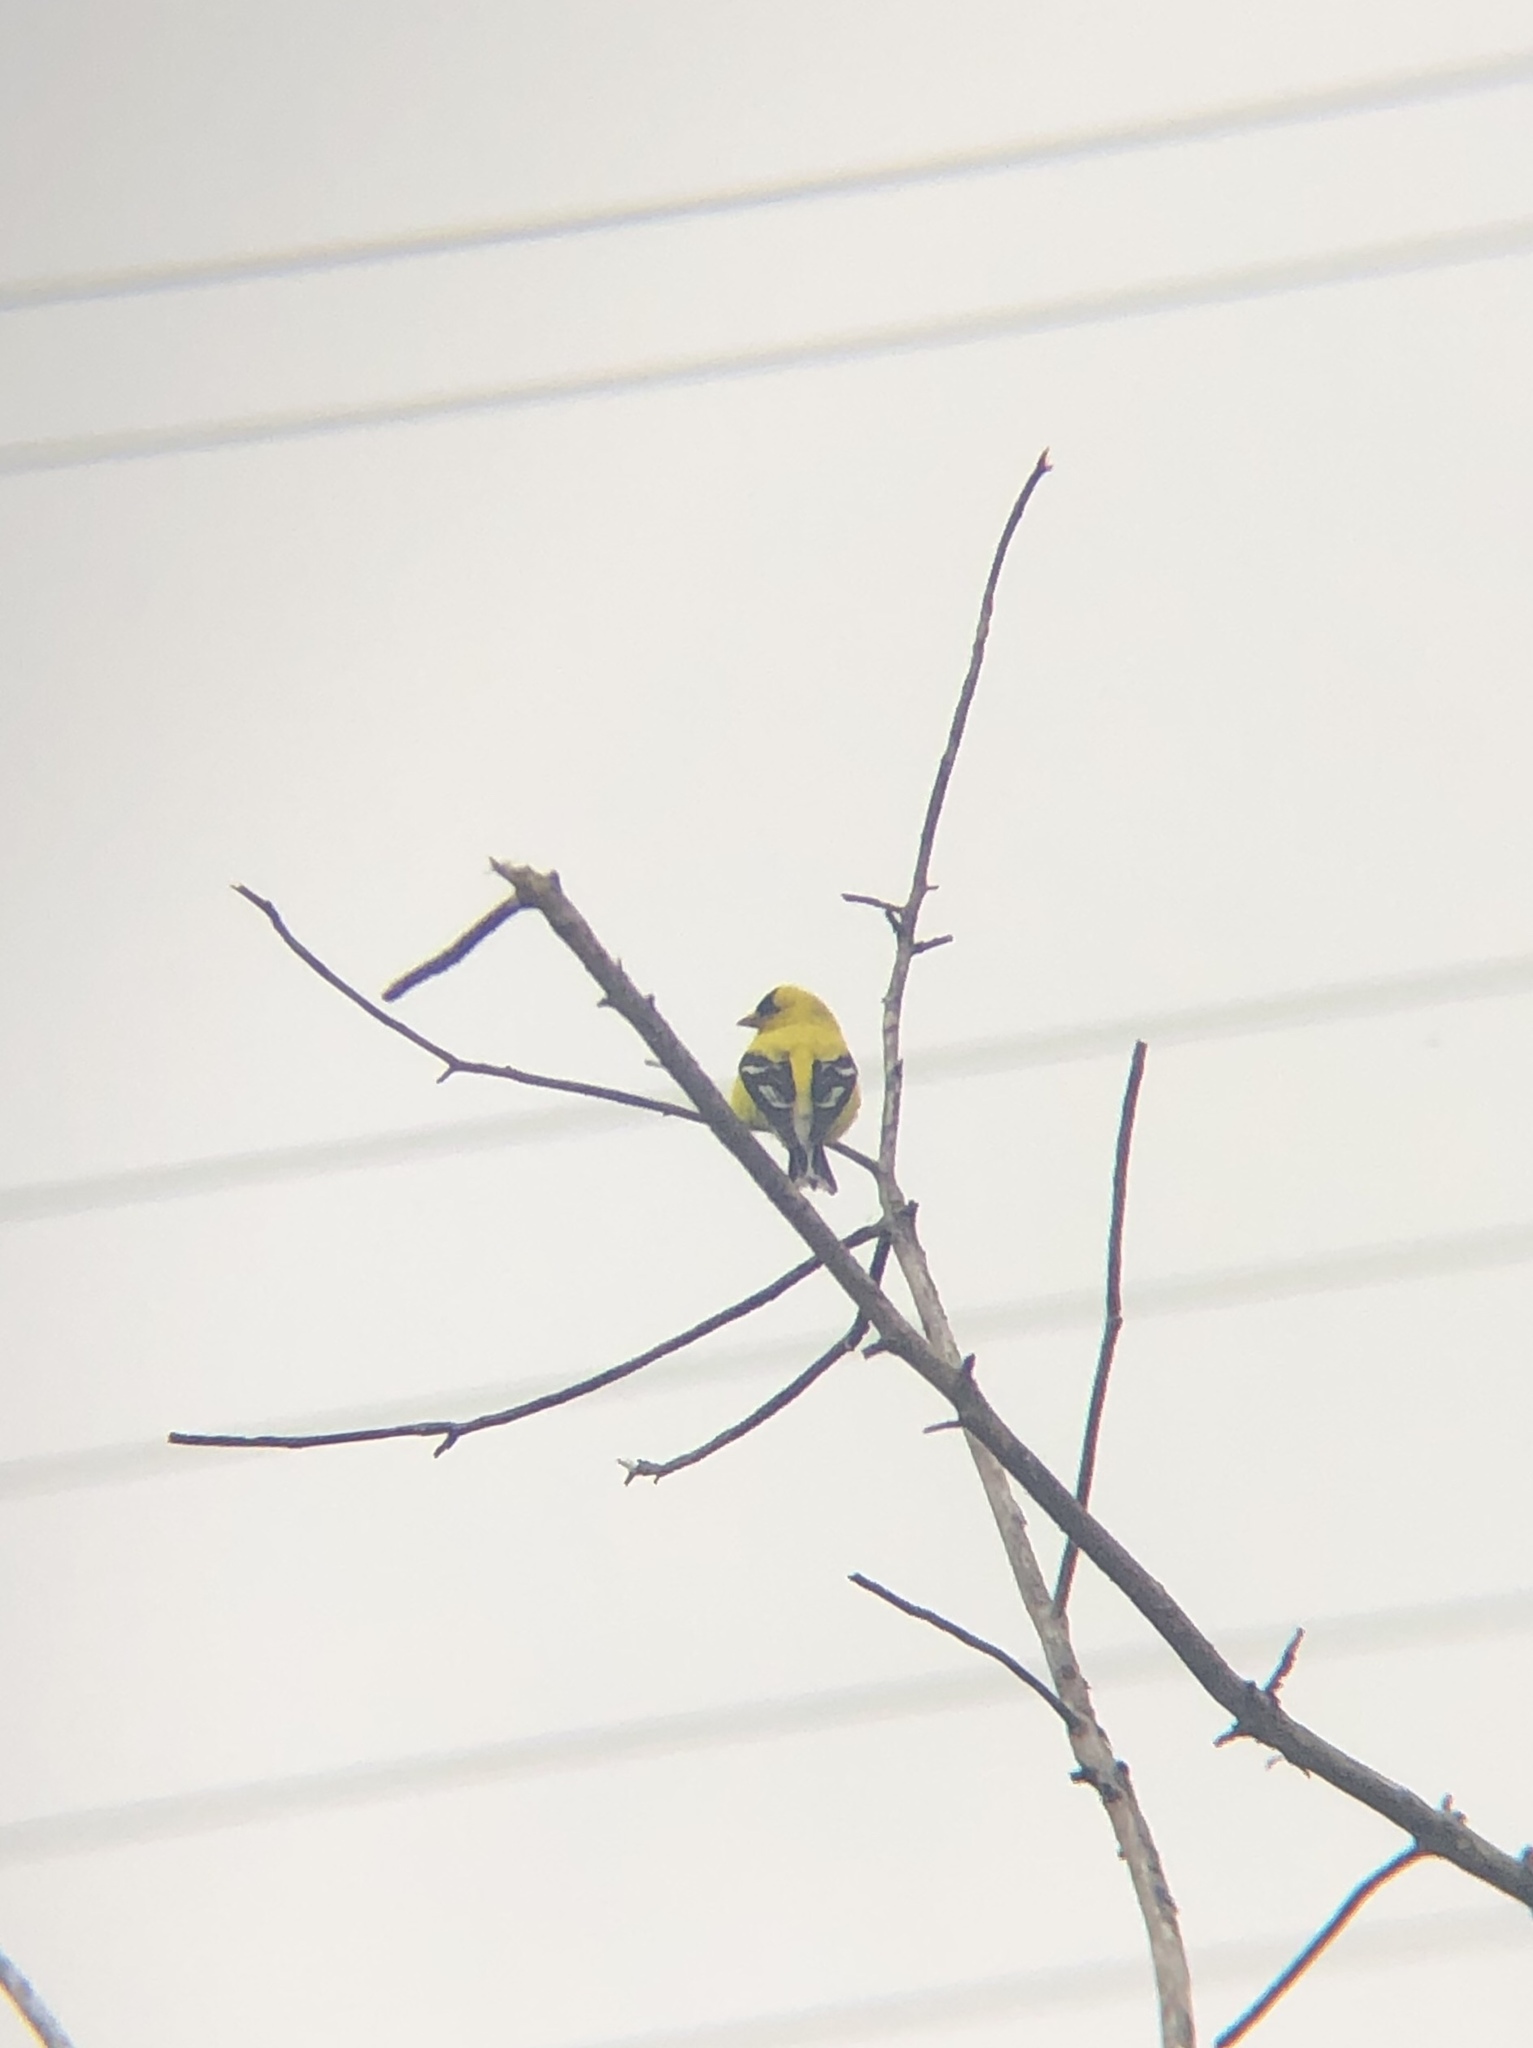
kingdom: Animalia
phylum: Chordata
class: Aves
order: Passeriformes
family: Fringillidae
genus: Spinus
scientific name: Spinus tristis
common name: American goldfinch
